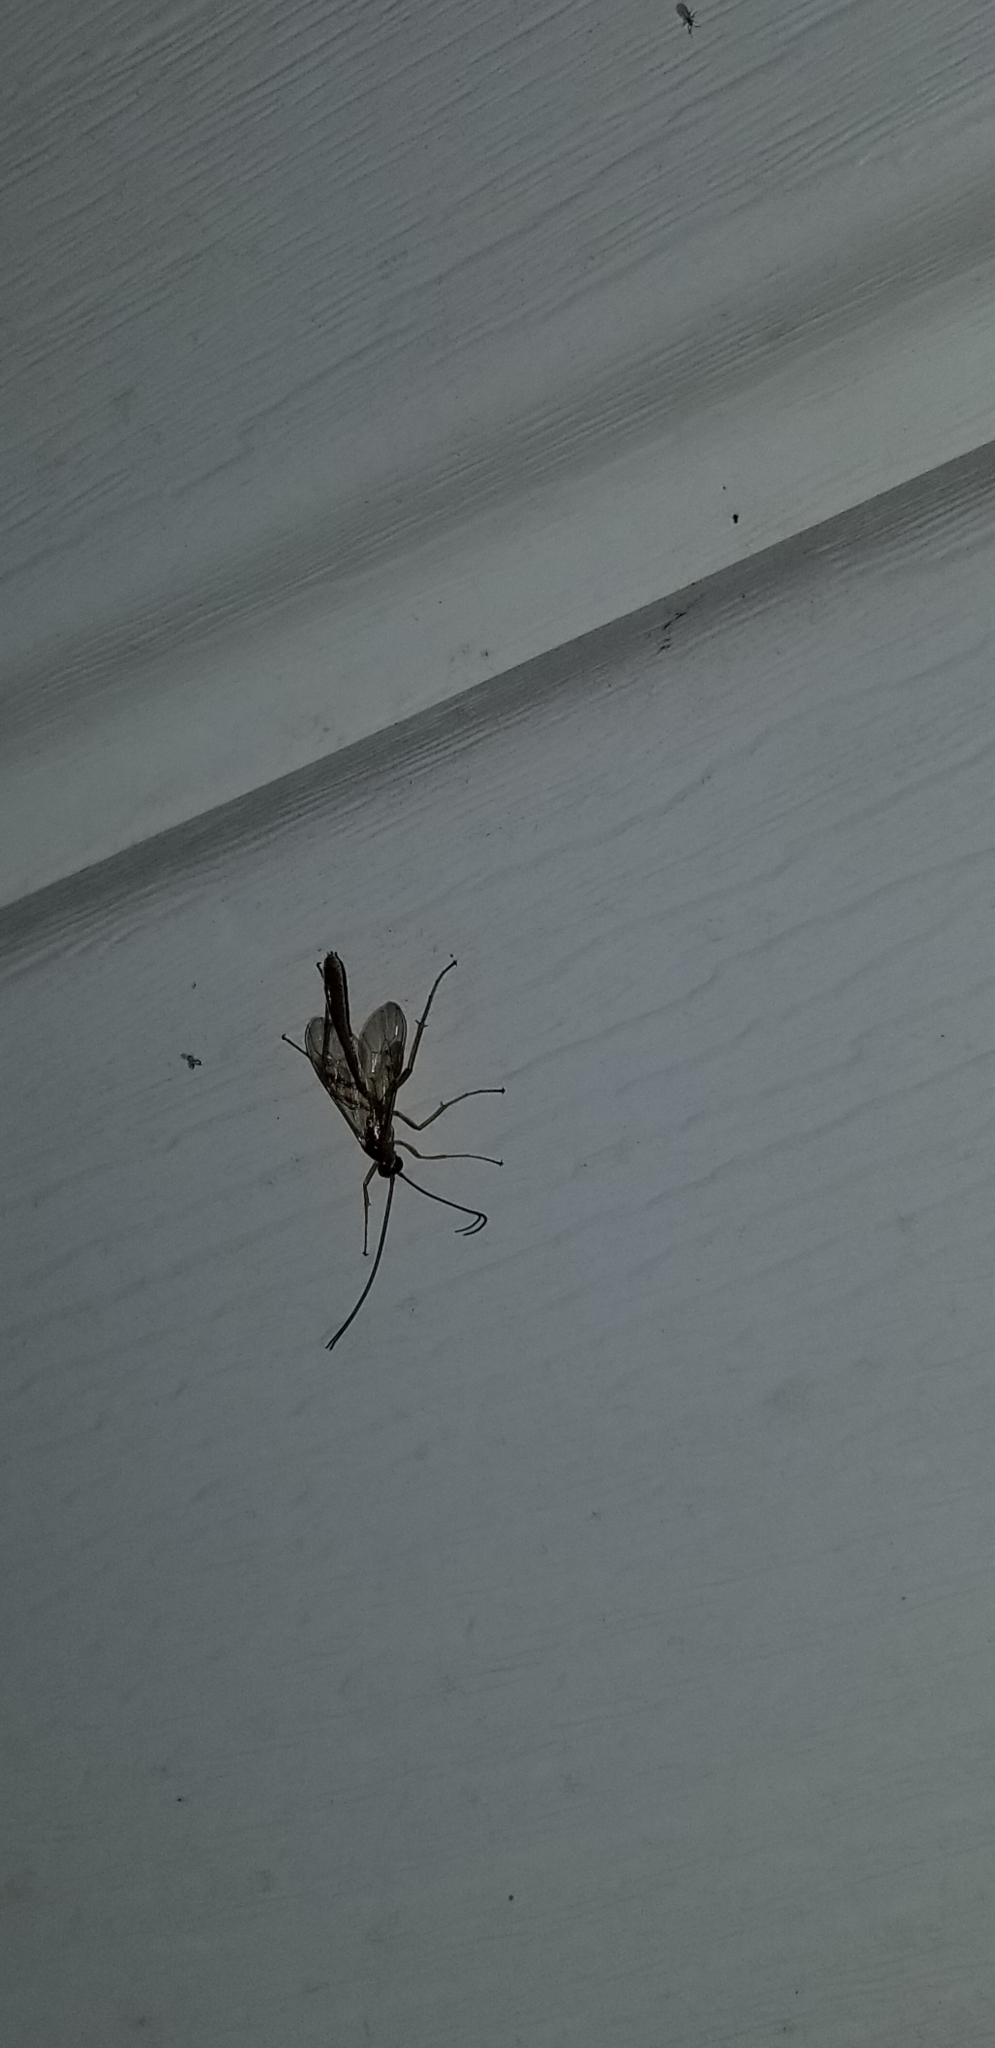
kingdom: Animalia
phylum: Arthropoda
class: Insecta
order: Hymenoptera
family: Ichneumonidae
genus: Enicospilus
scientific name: Enicospilus purgatus
